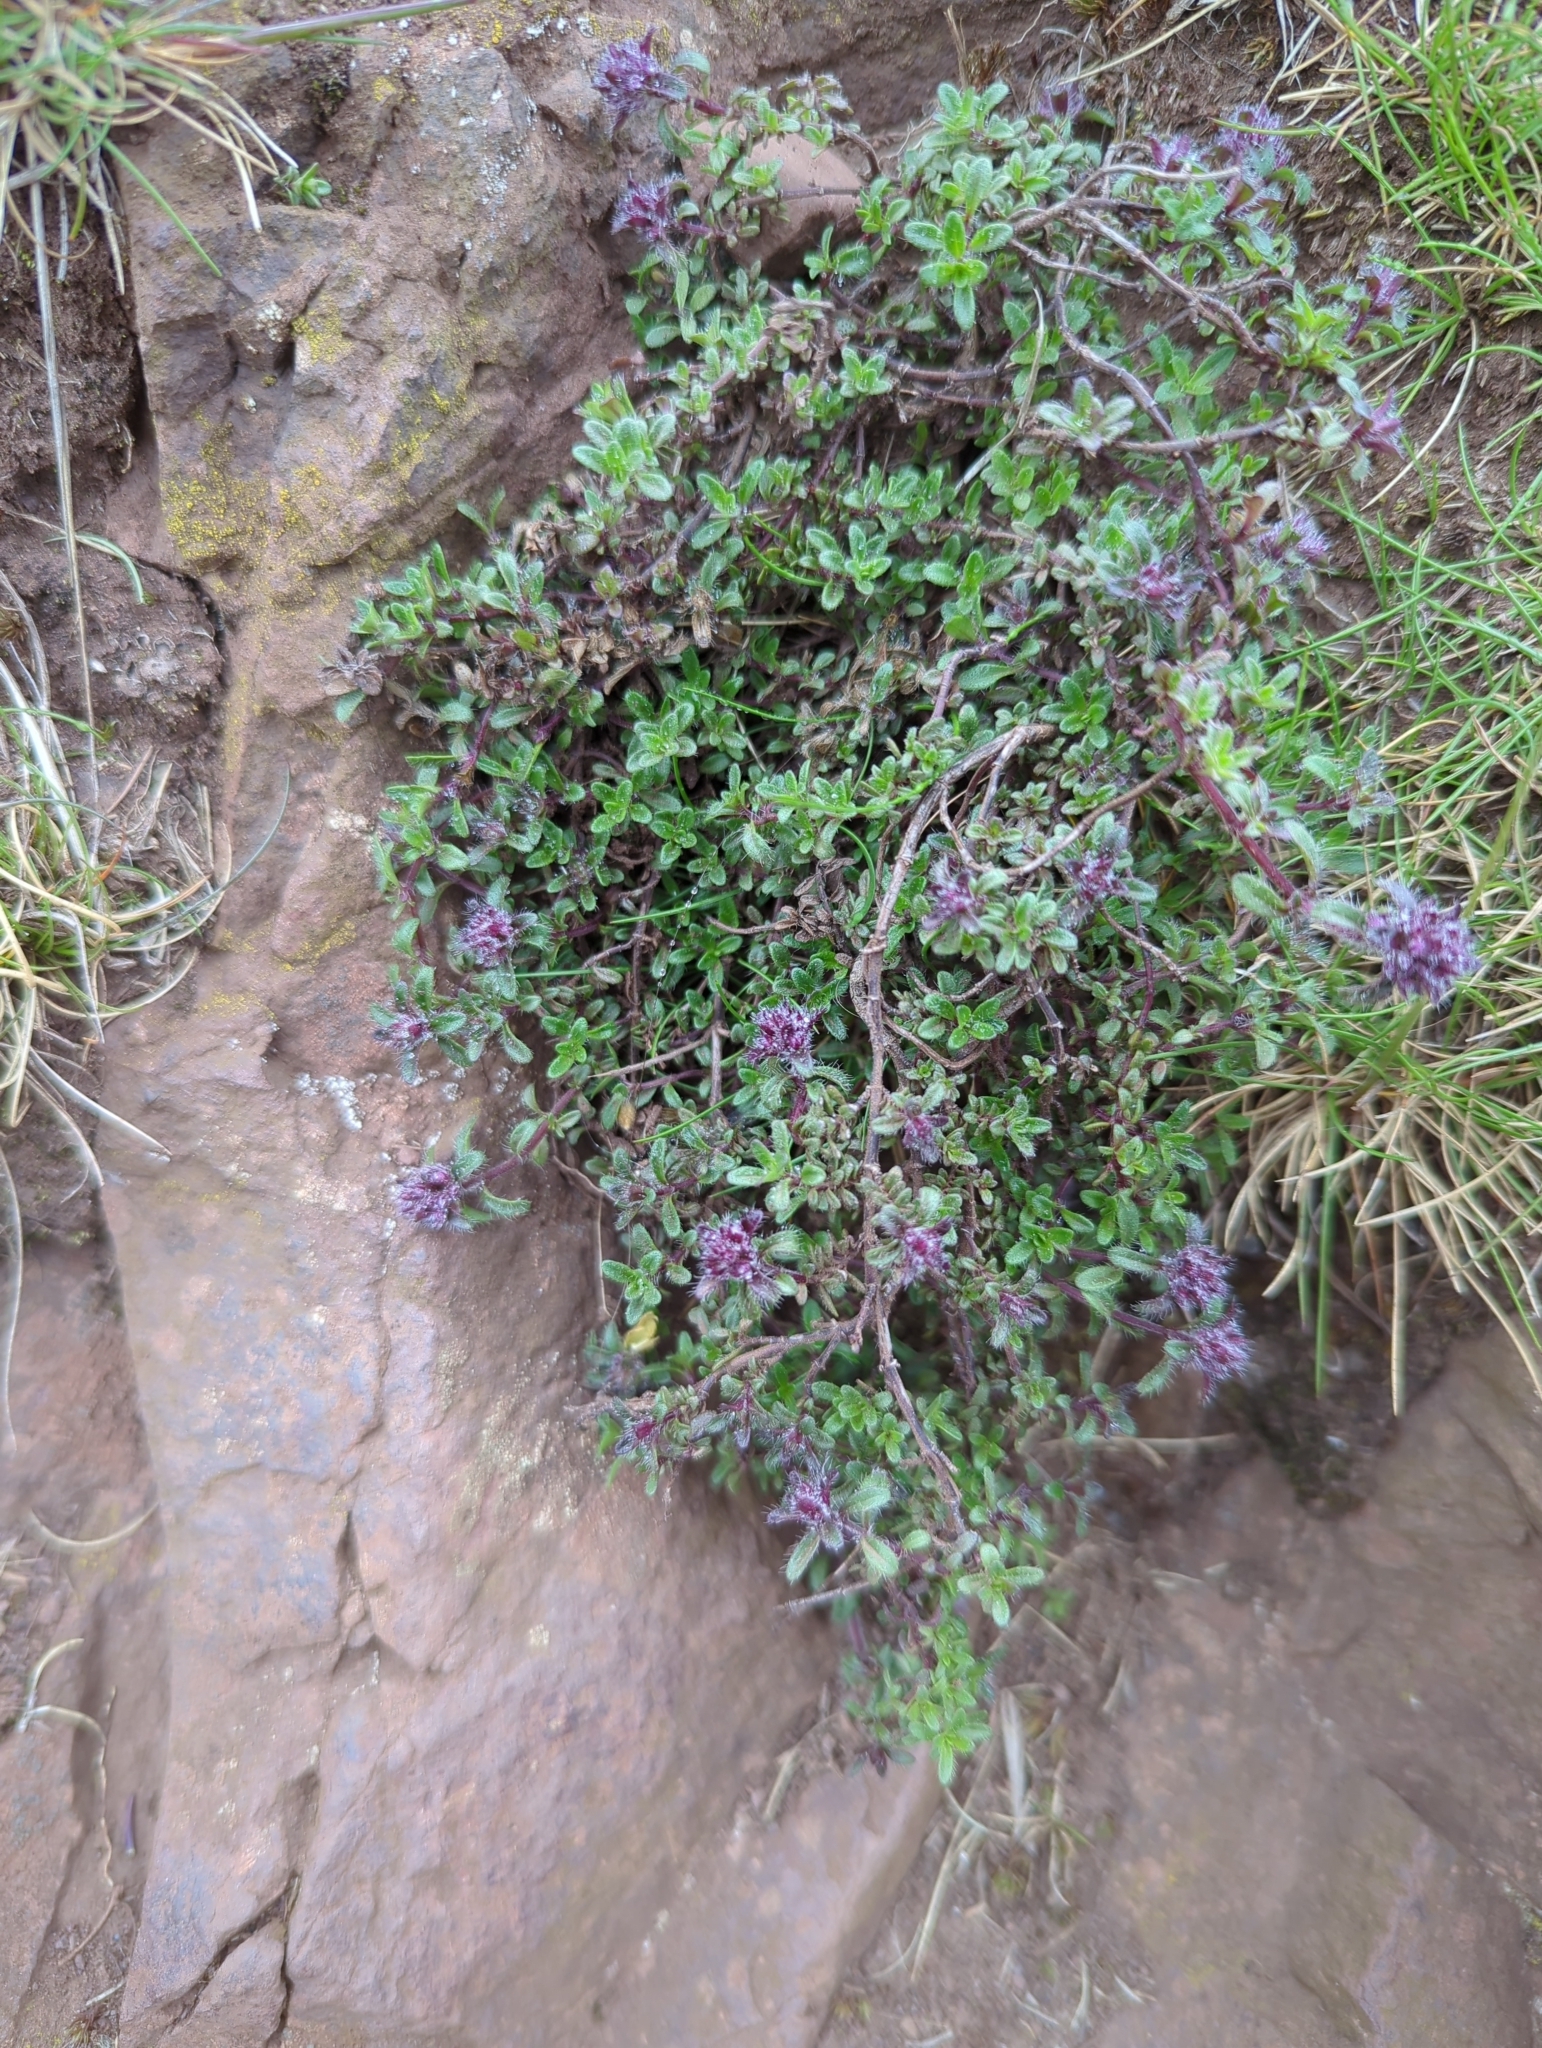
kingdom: Plantae
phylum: Tracheophyta
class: Magnoliopsida
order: Lamiales
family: Lamiaceae
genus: Thymus
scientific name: Thymus praecox
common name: Wild thyme
